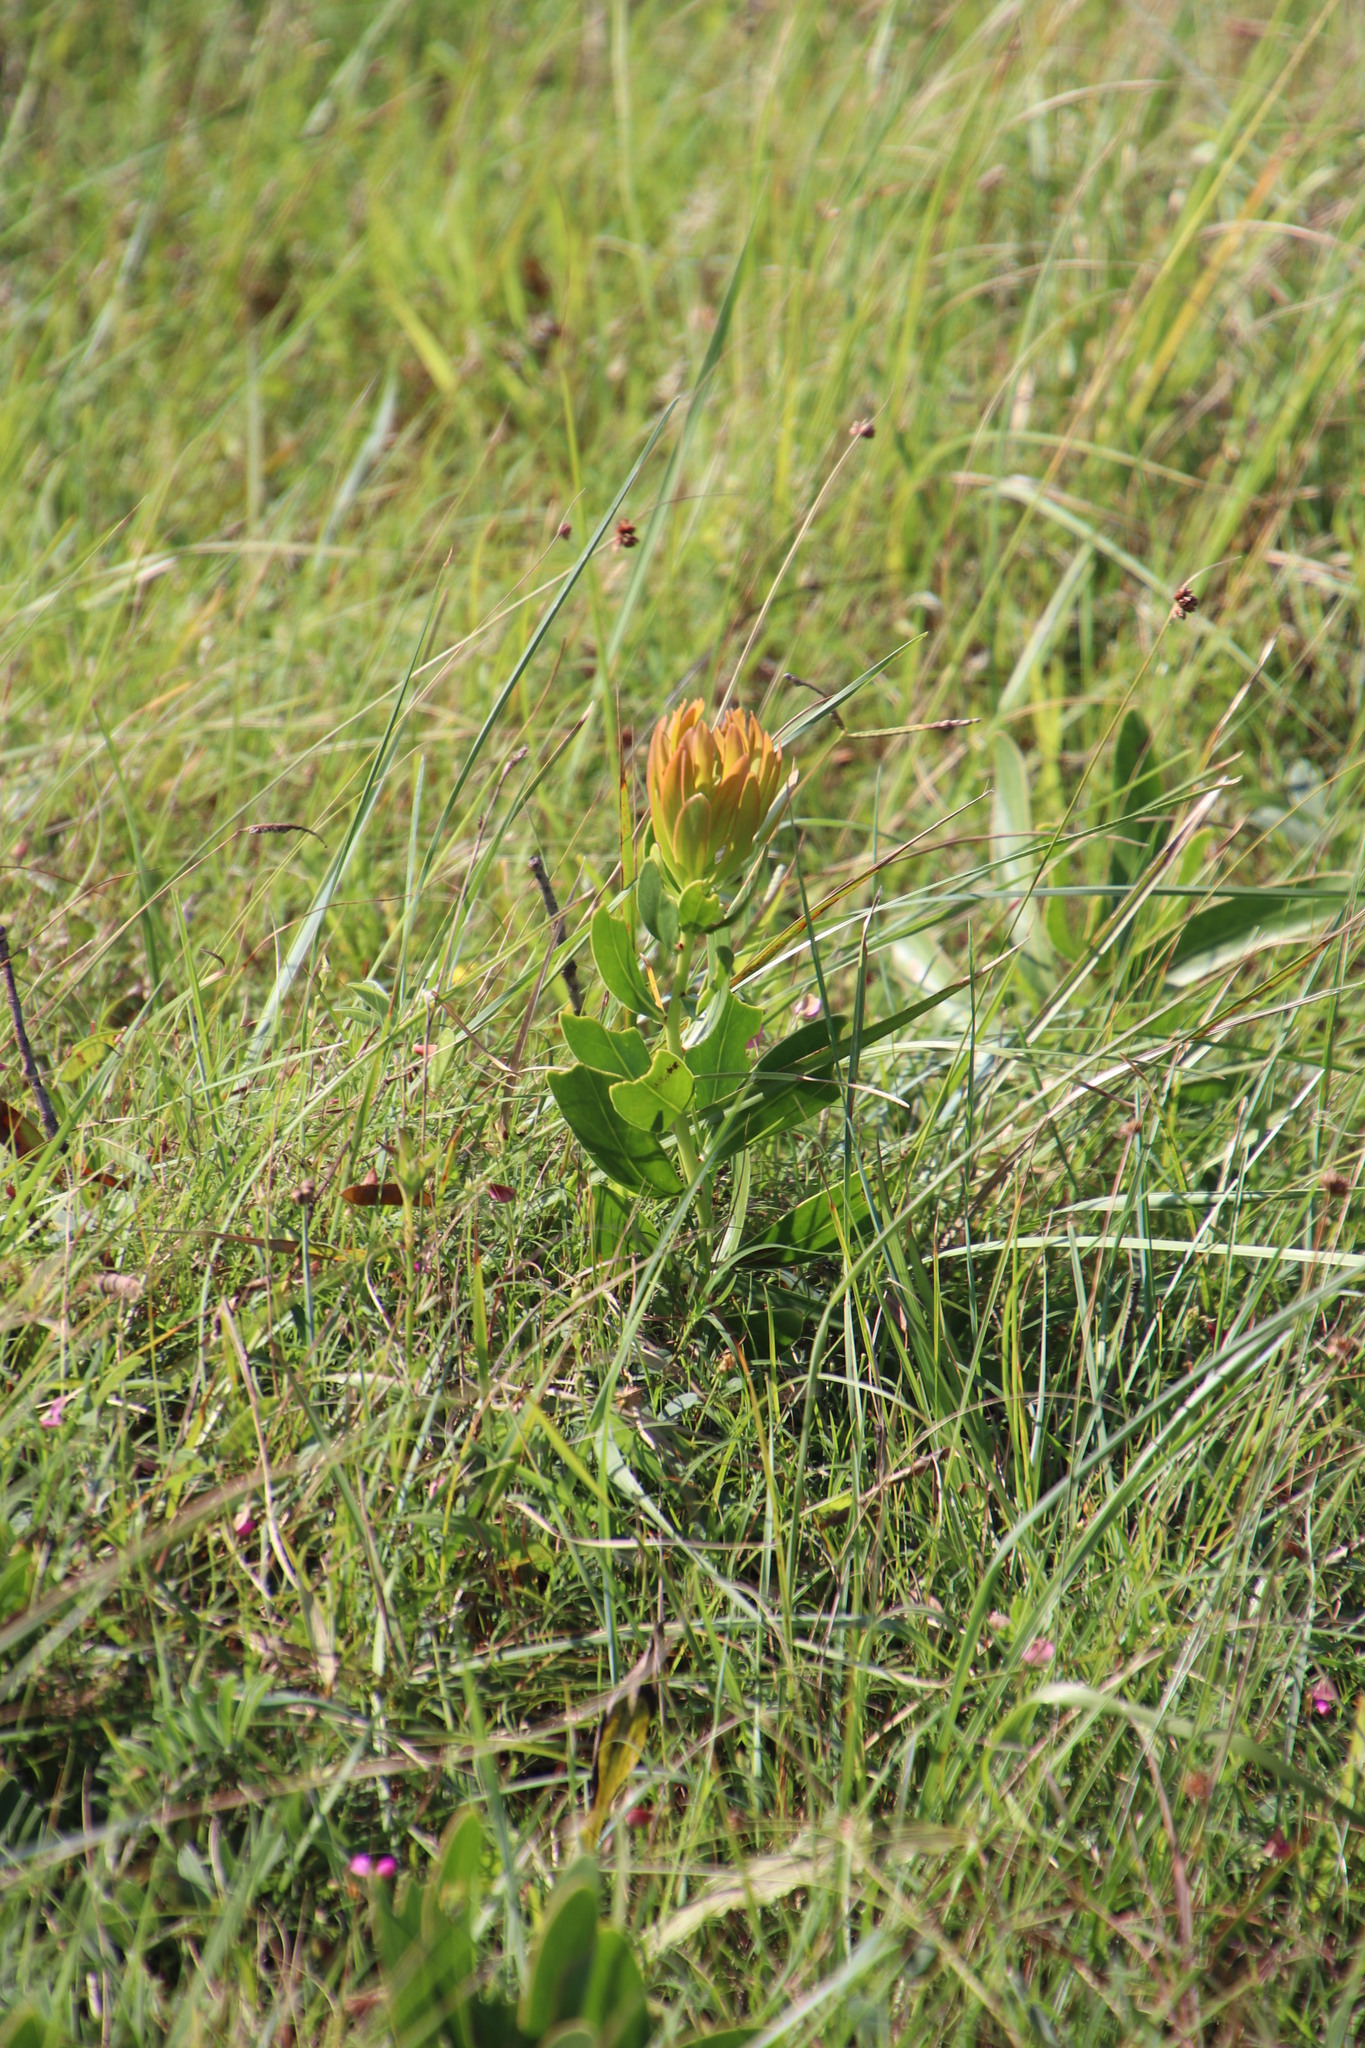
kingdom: Plantae
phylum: Tracheophyta
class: Magnoliopsida
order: Proteales
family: Proteaceae
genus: Protea
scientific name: Protea simplex
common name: Dwarf grassveld sugarbush
